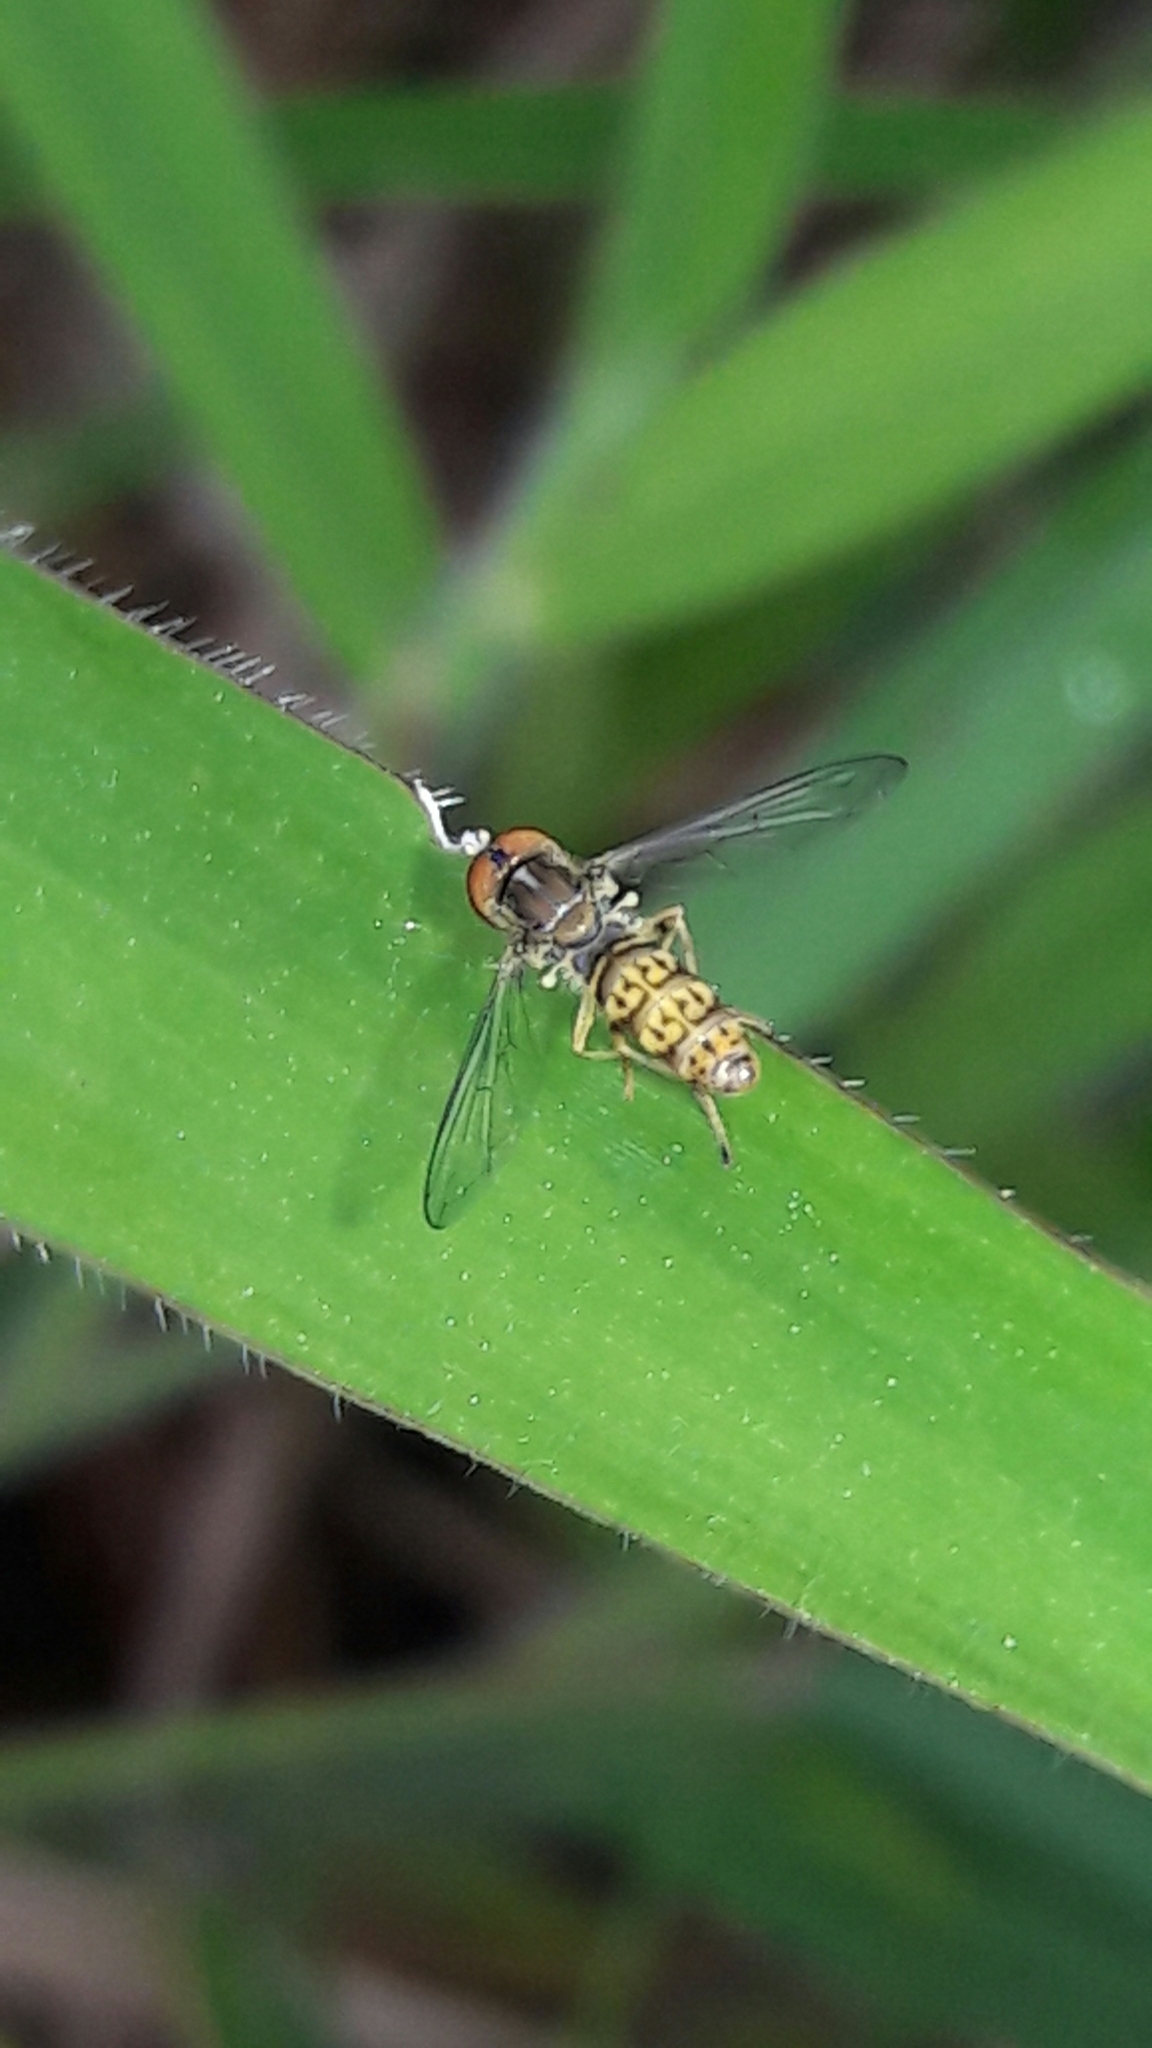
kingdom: Animalia
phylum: Arthropoda
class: Insecta
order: Diptera
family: Syrphidae
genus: Toxomerus
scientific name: Toxomerus
